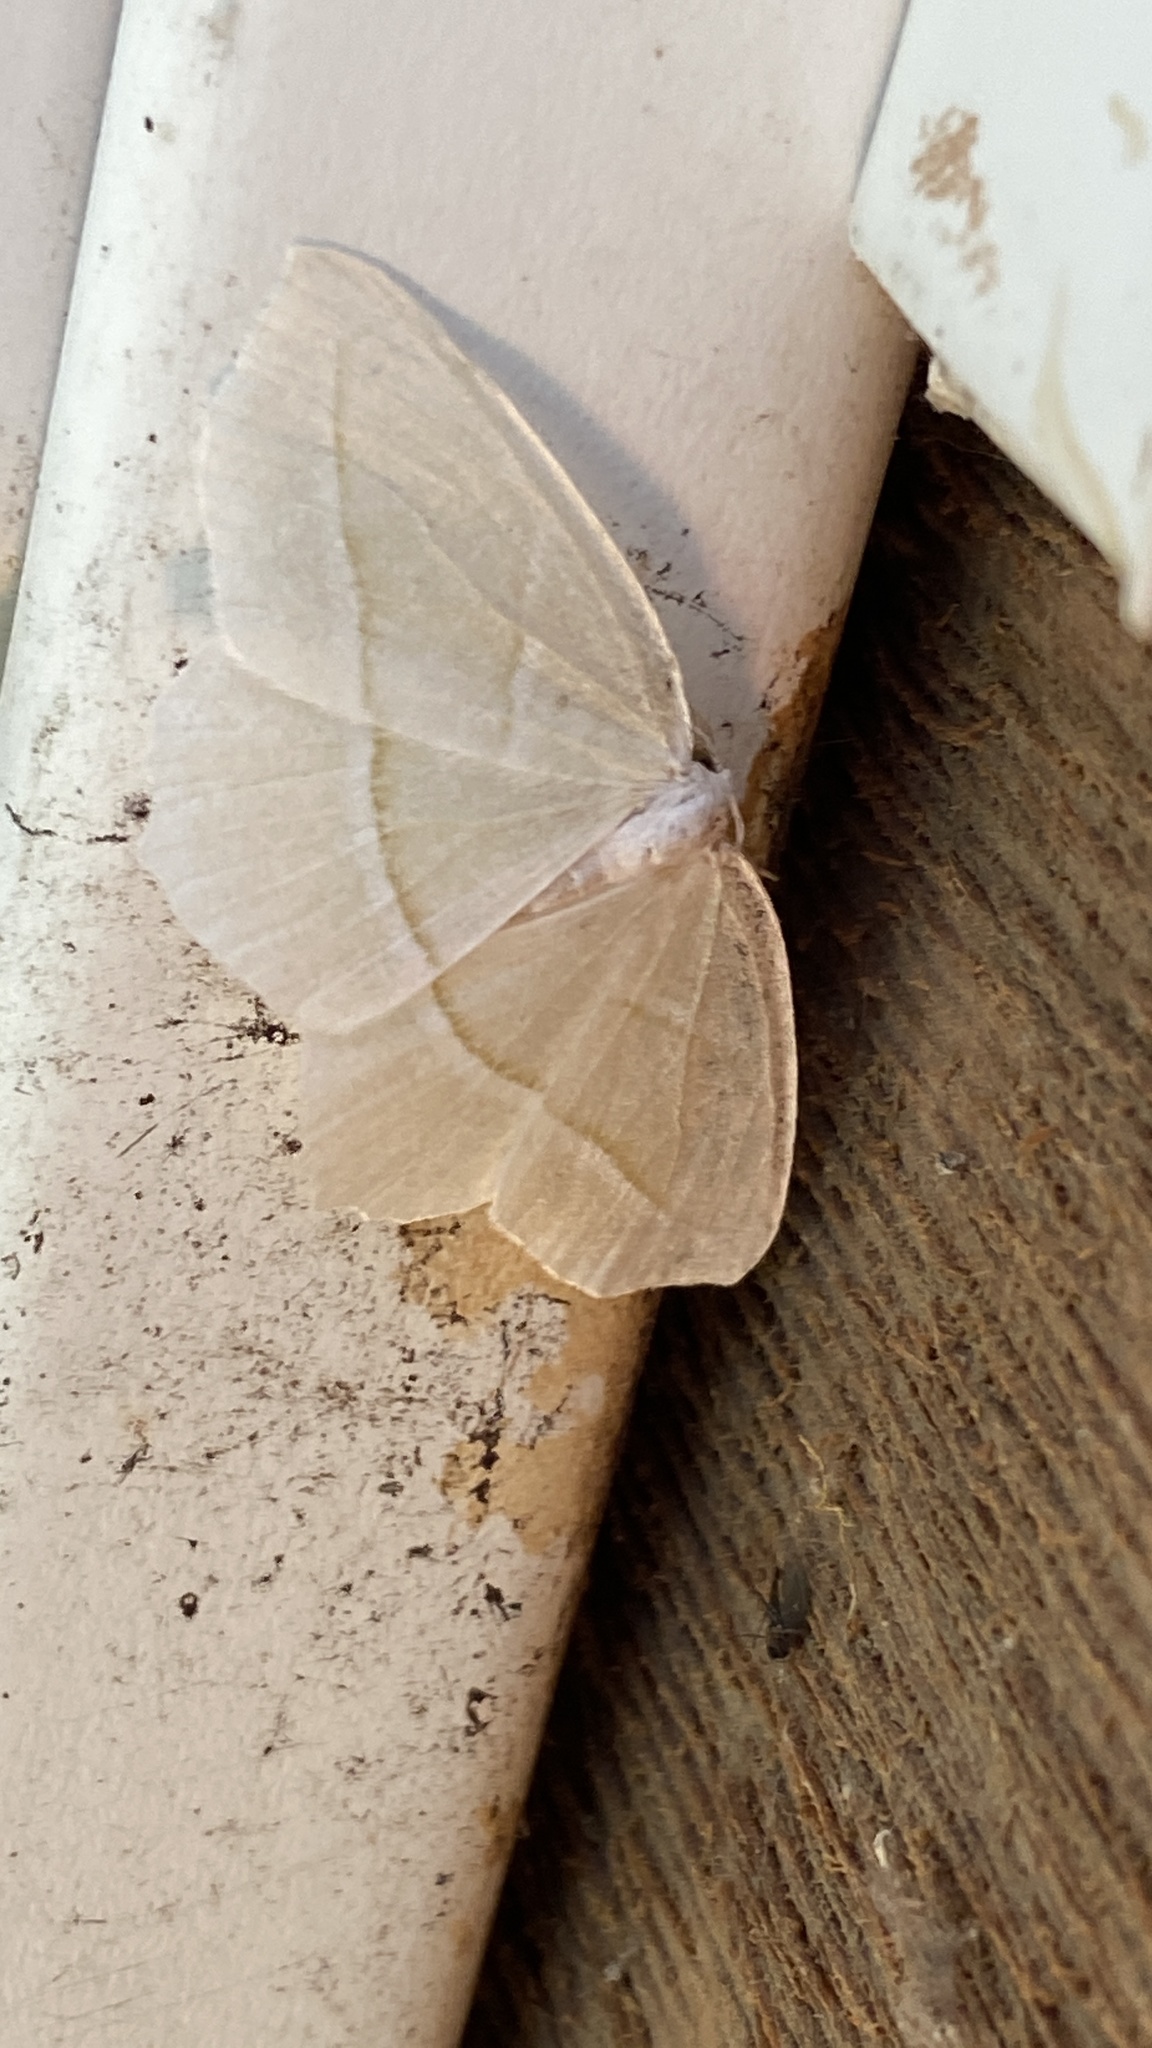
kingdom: Animalia
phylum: Arthropoda
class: Insecta
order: Lepidoptera
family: Geometridae
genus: Campaea
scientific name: Campaea perlata
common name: Fringed looper
